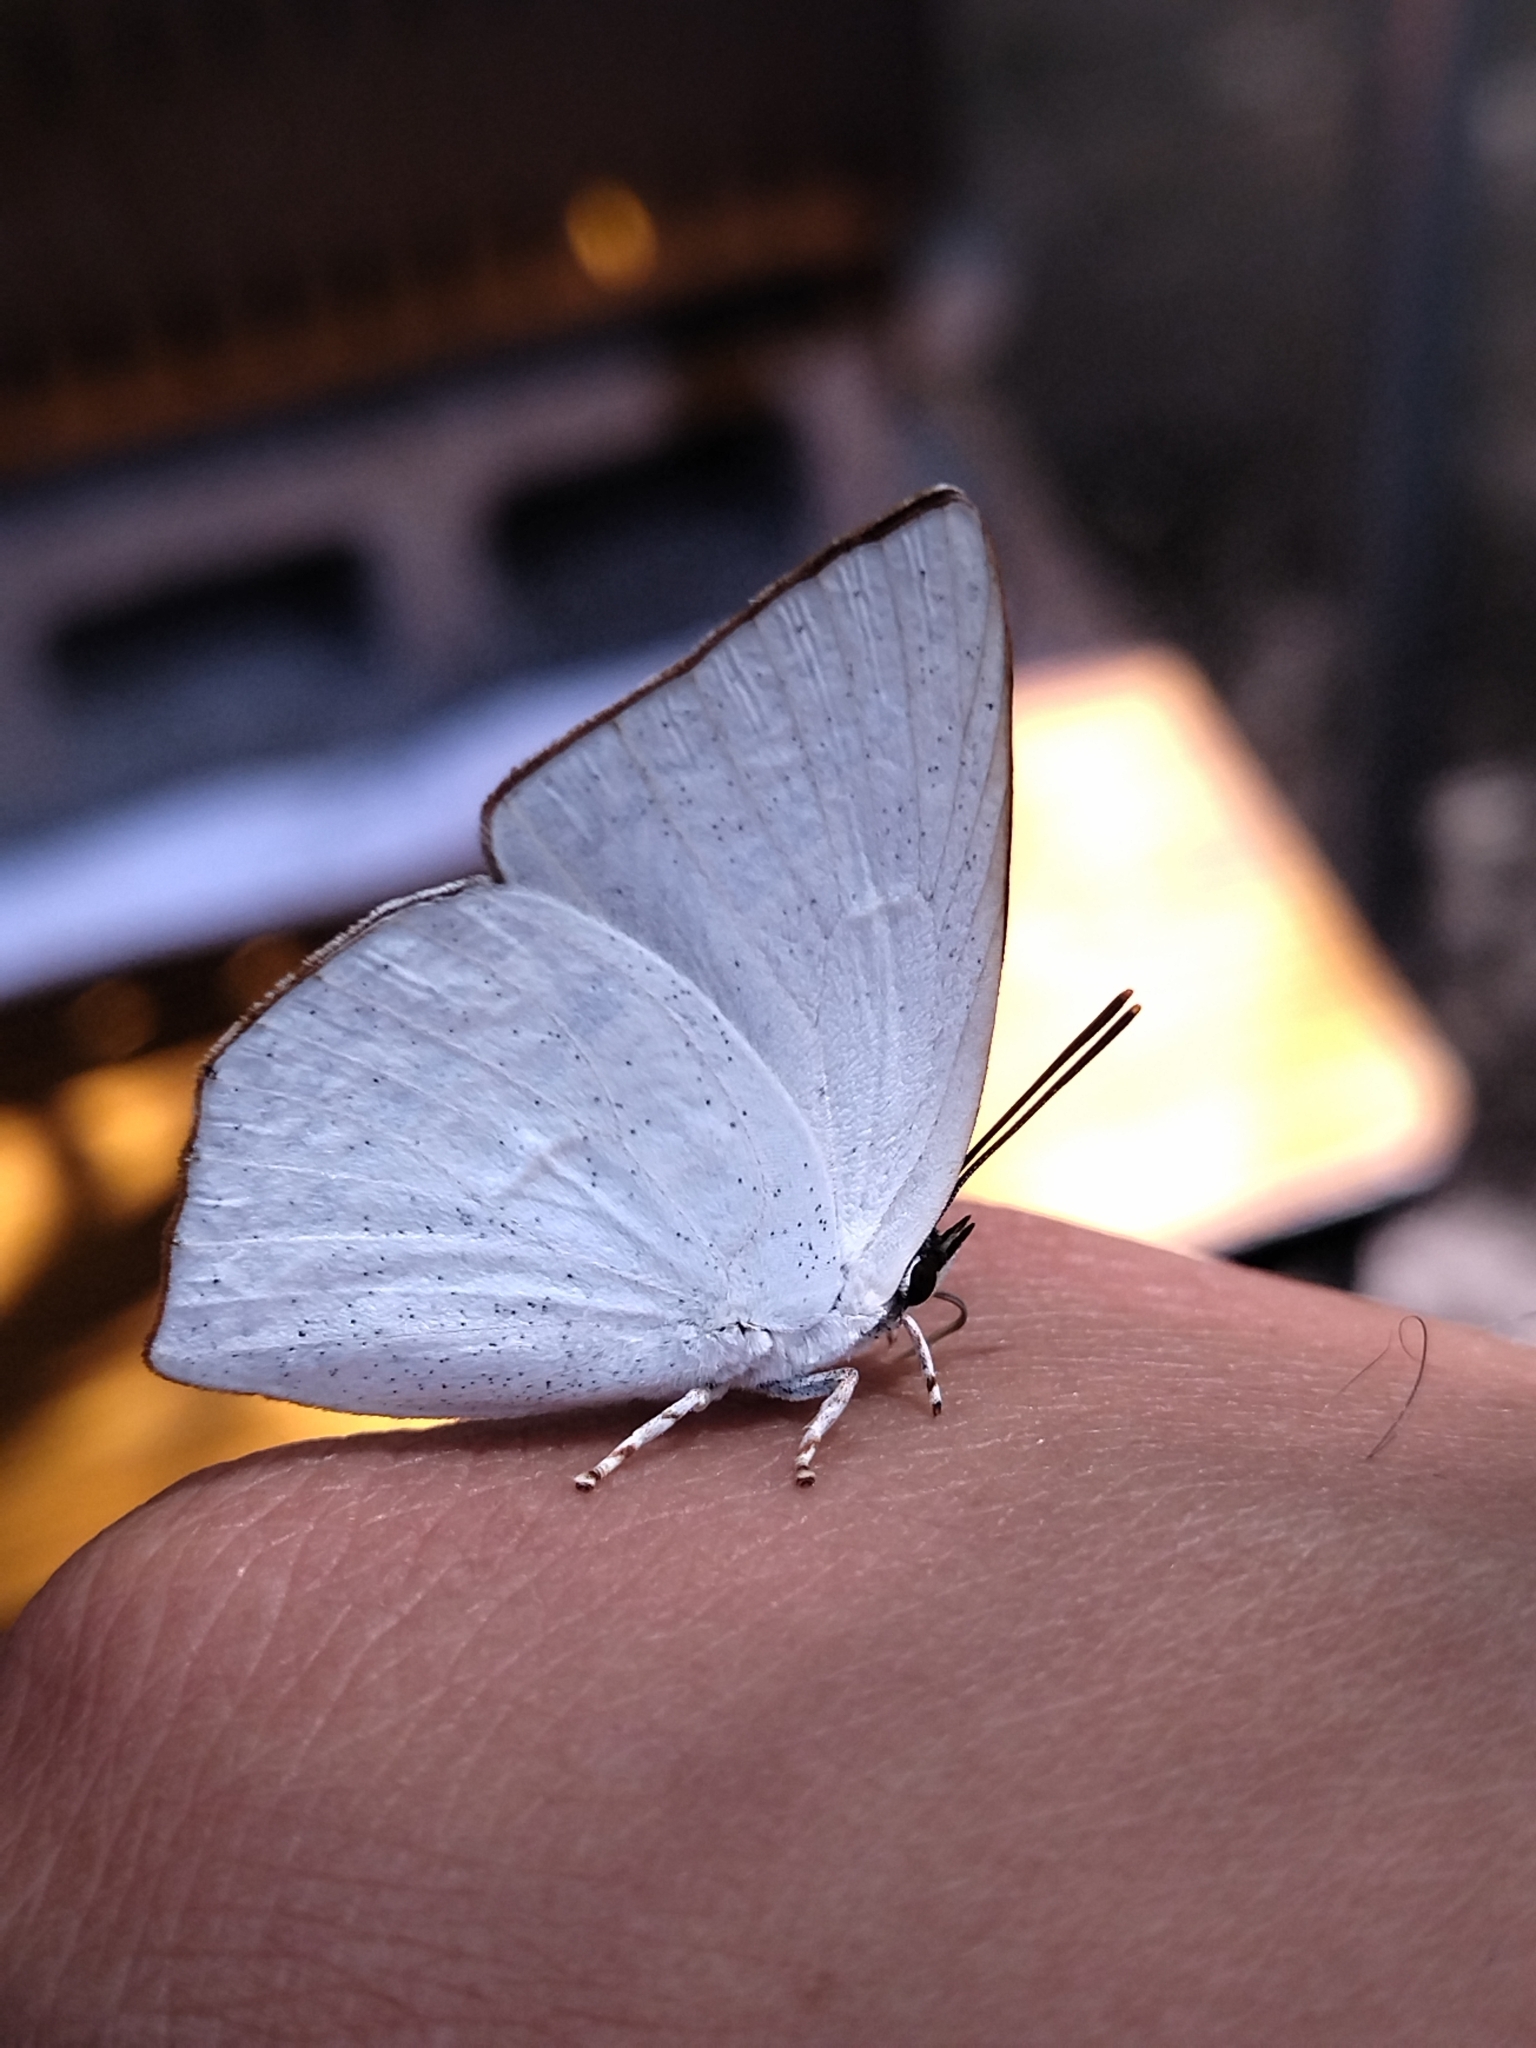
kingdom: Animalia
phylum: Arthropoda
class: Insecta
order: Lepidoptera
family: Lycaenidae
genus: Curetis
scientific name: Curetis acuta
